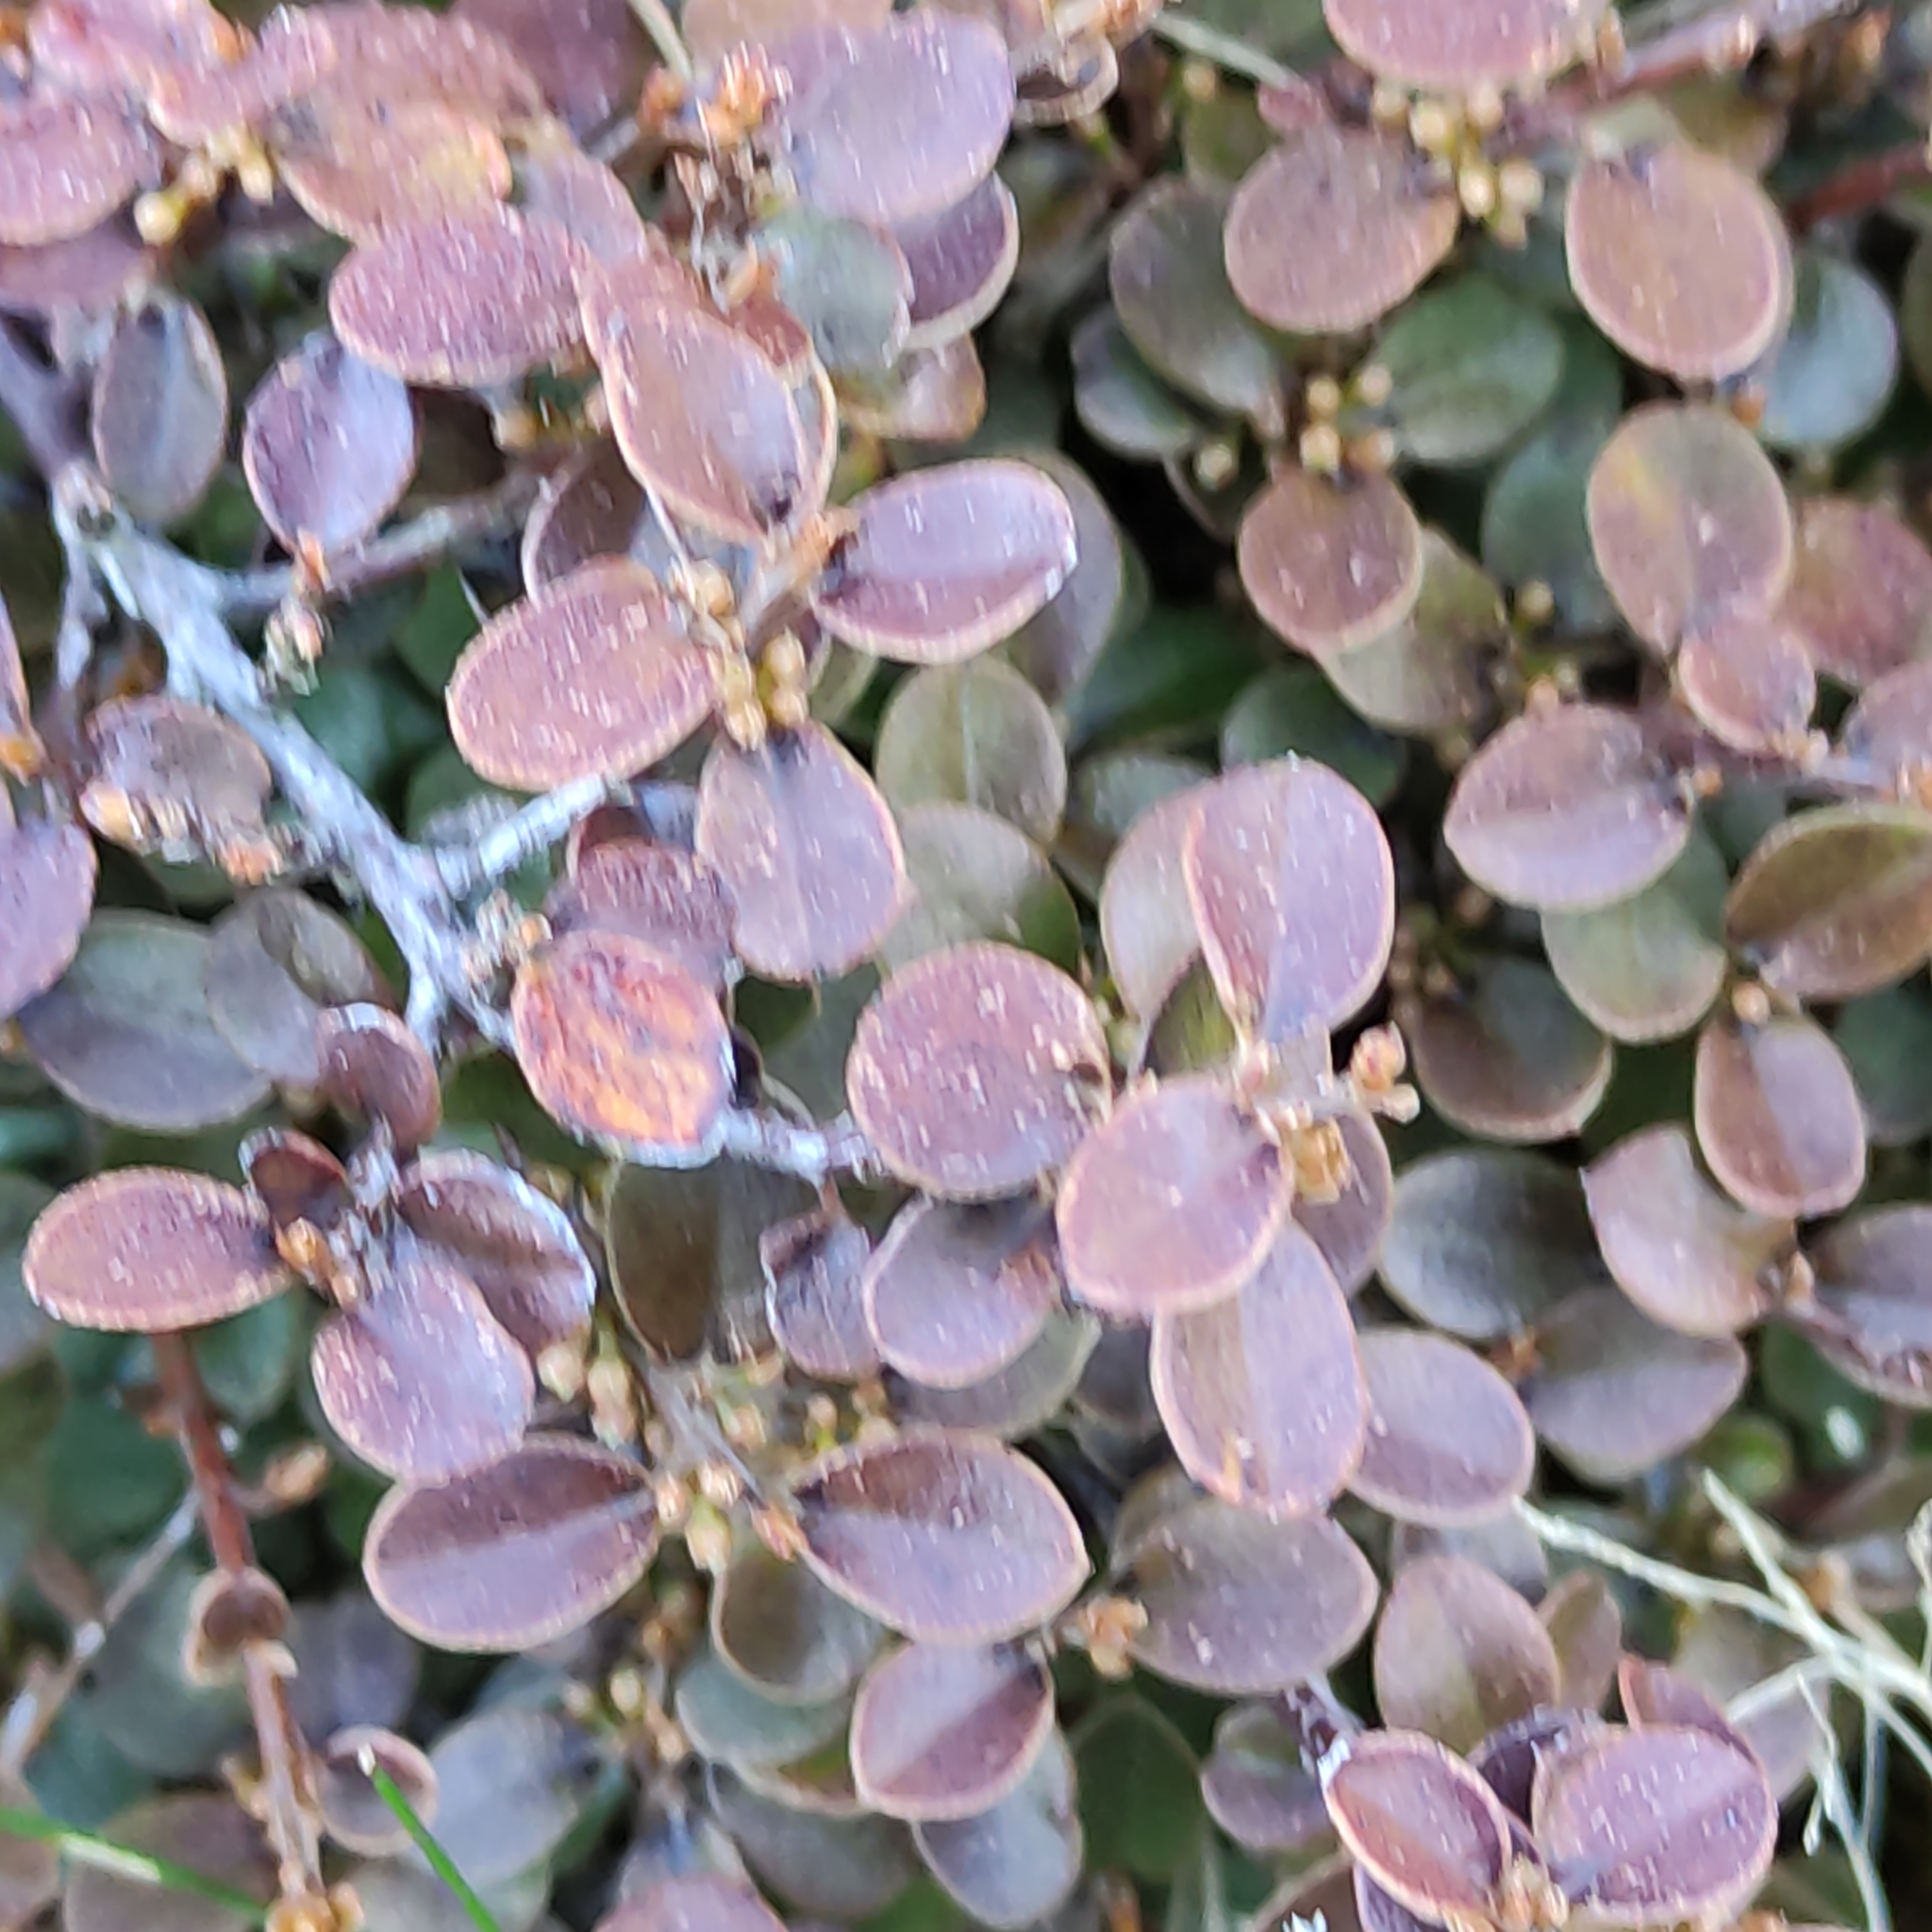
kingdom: Plantae
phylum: Tracheophyta
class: Magnoliopsida
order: Ericales
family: Primulaceae
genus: Myrsine
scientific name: Myrsine nummularia
